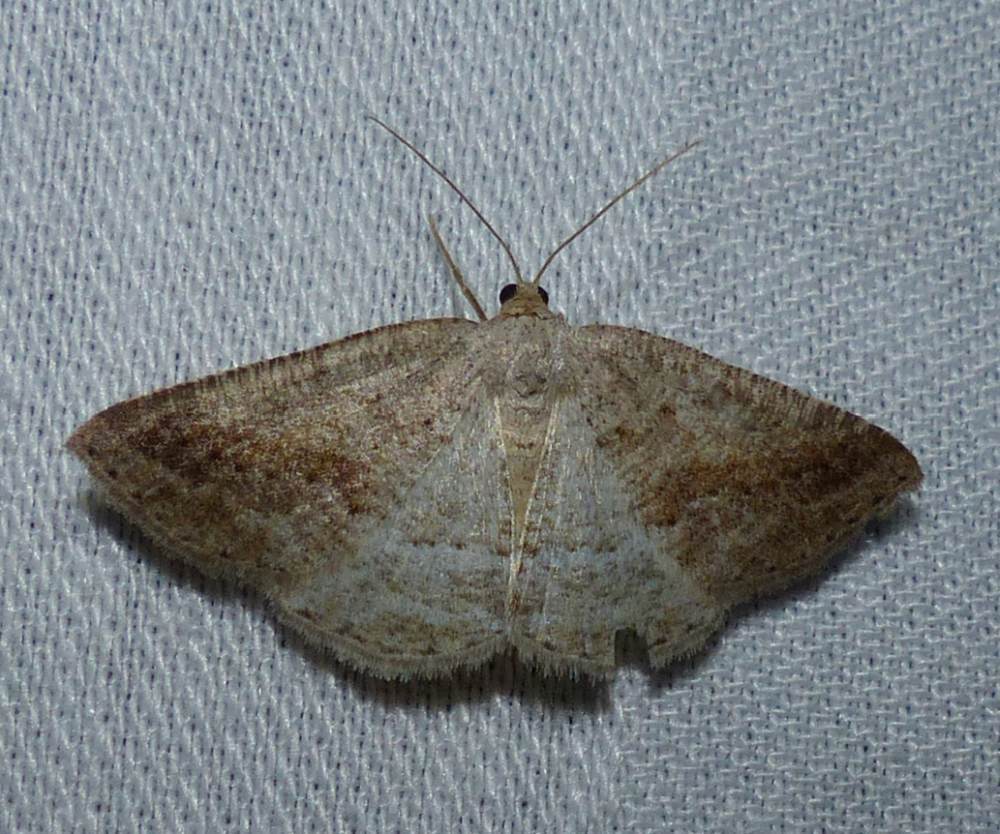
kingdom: Animalia
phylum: Arthropoda
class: Insecta
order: Lepidoptera
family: Geometridae
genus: Tacparia
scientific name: Tacparia detersata
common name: Pale alder moth
